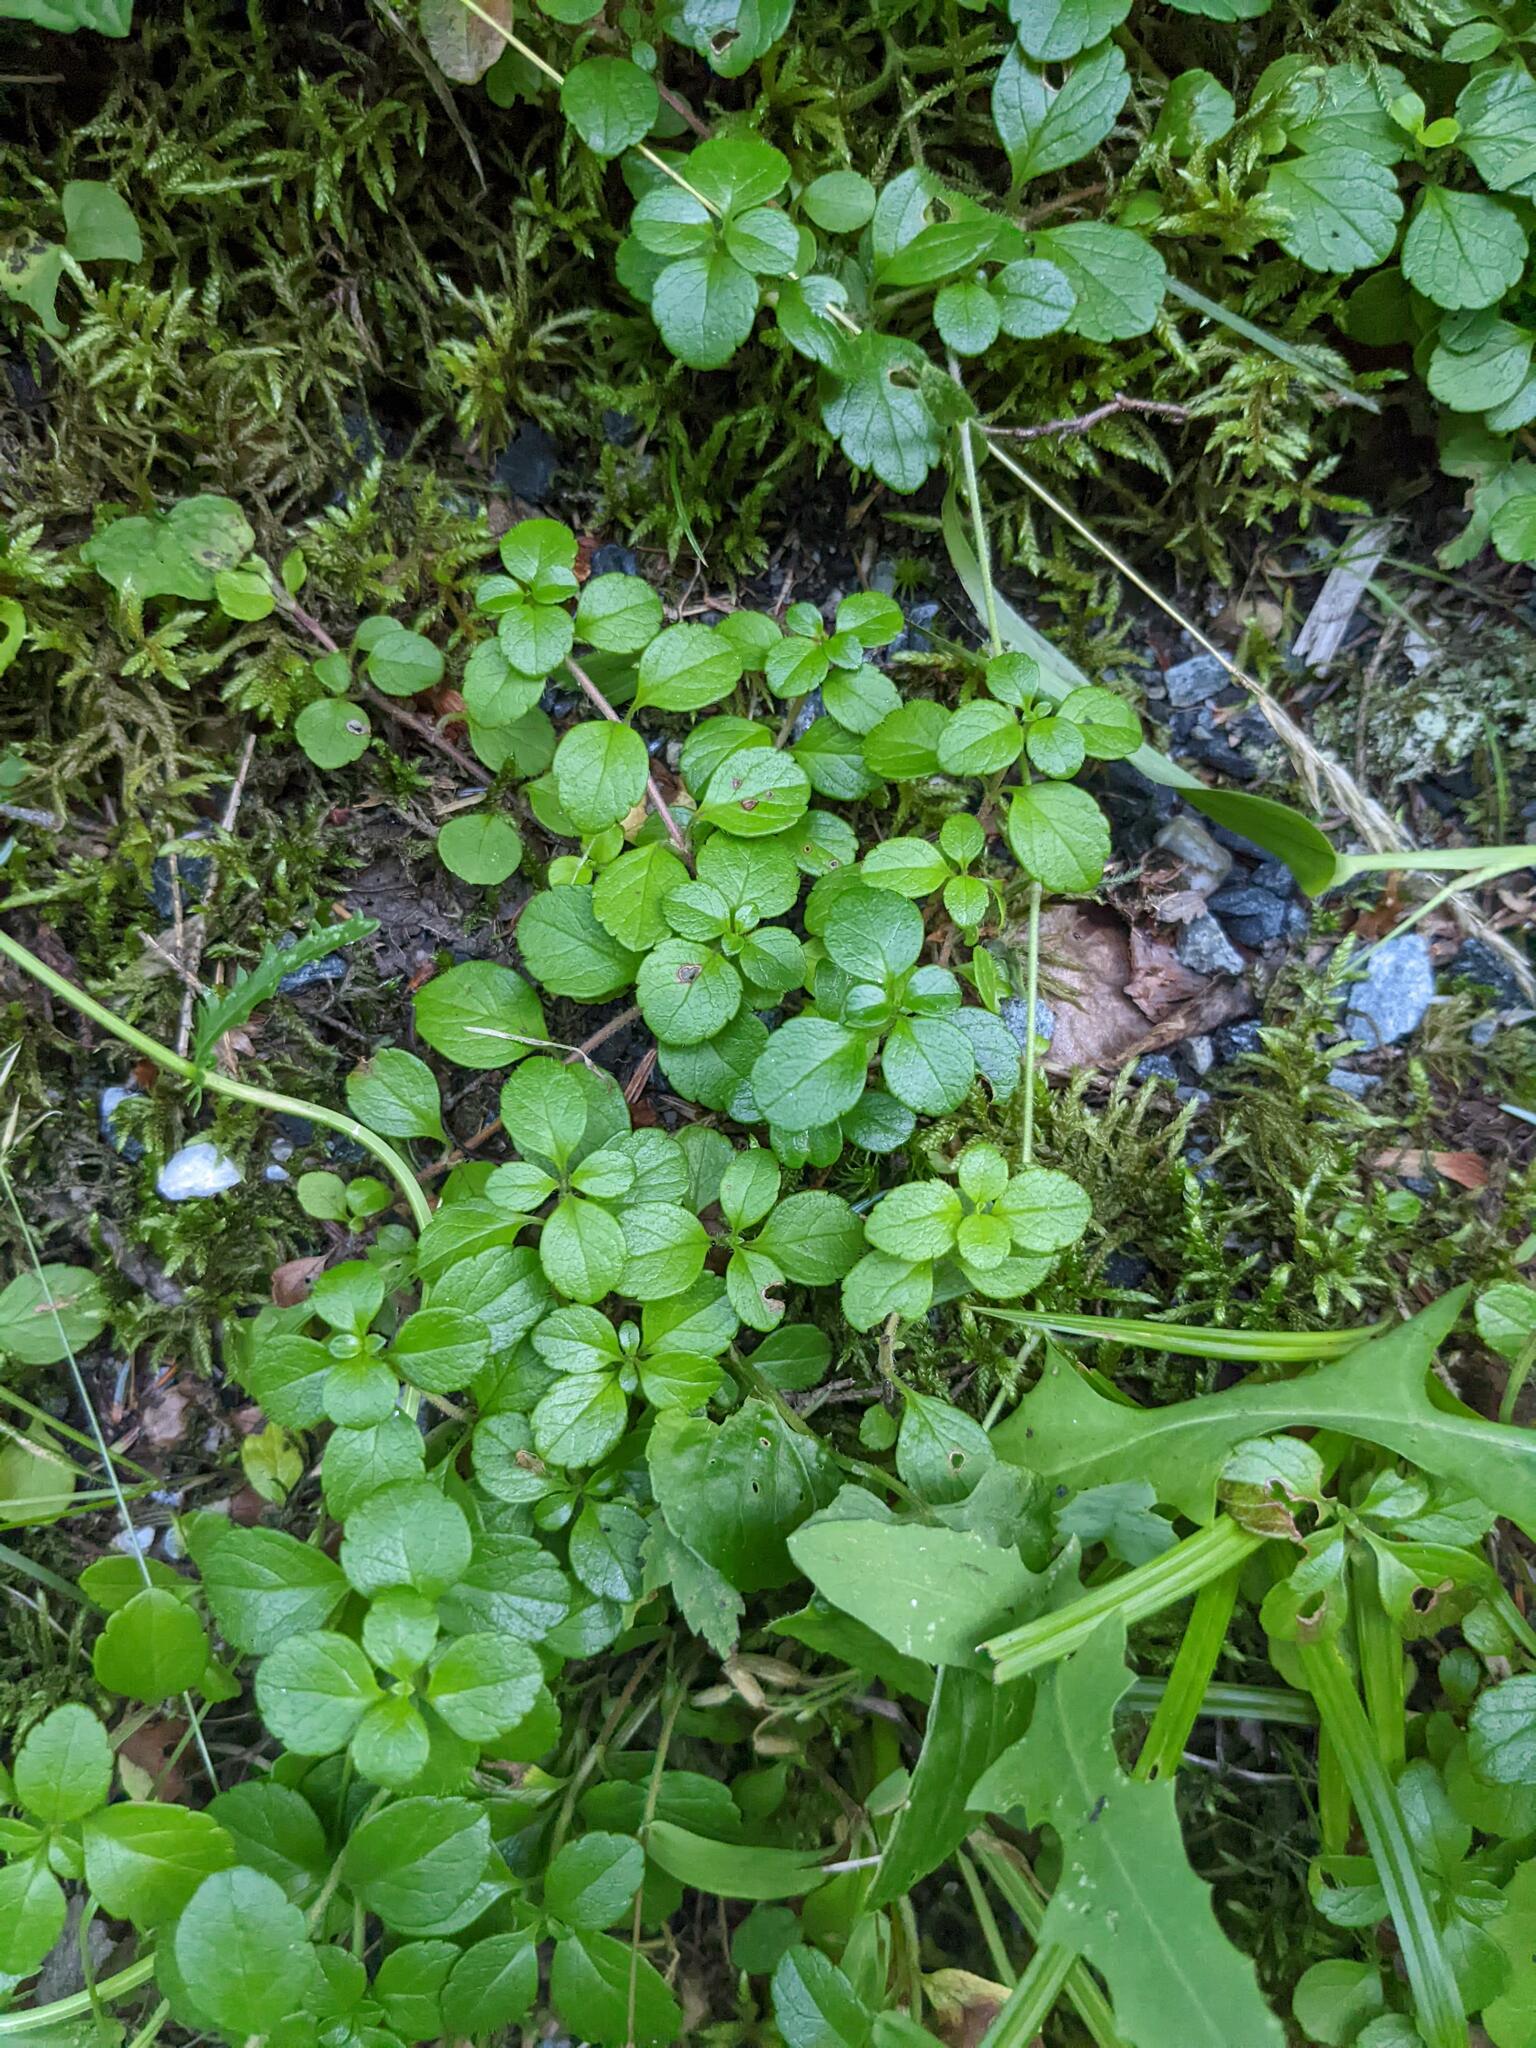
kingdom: Plantae
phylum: Tracheophyta
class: Magnoliopsida
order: Dipsacales
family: Caprifoliaceae
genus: Linnaea
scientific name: Linnaea borealis
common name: Twinflower
